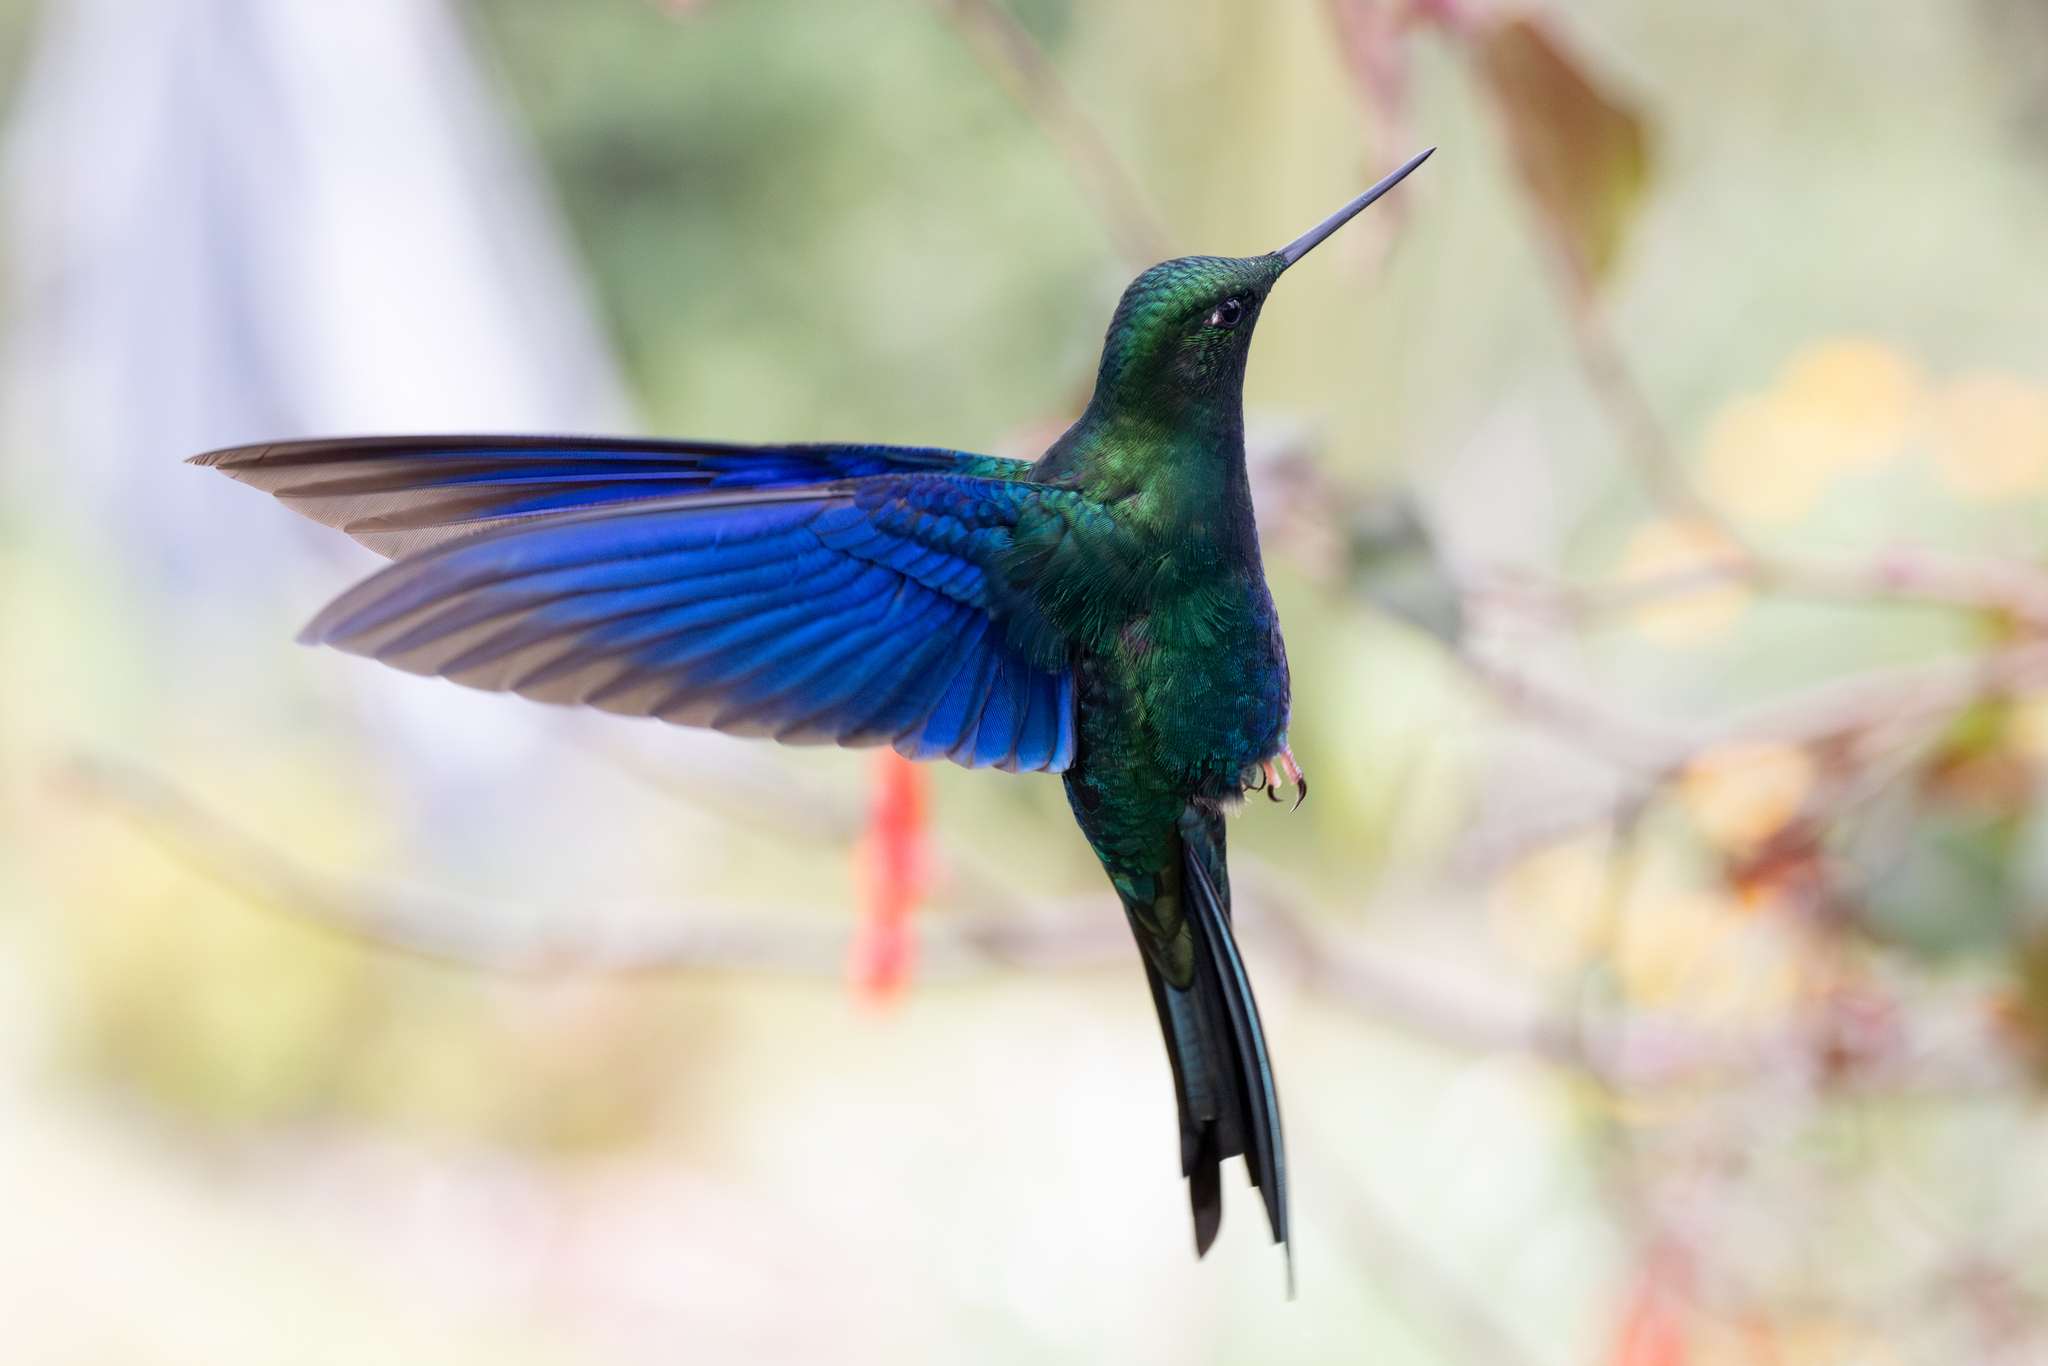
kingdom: Animalia
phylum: Chordata
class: Aves
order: Apodiformes
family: Trochilidae
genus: Pterophanes
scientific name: Pterophanes cyanopterus
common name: Great sapphirewing
